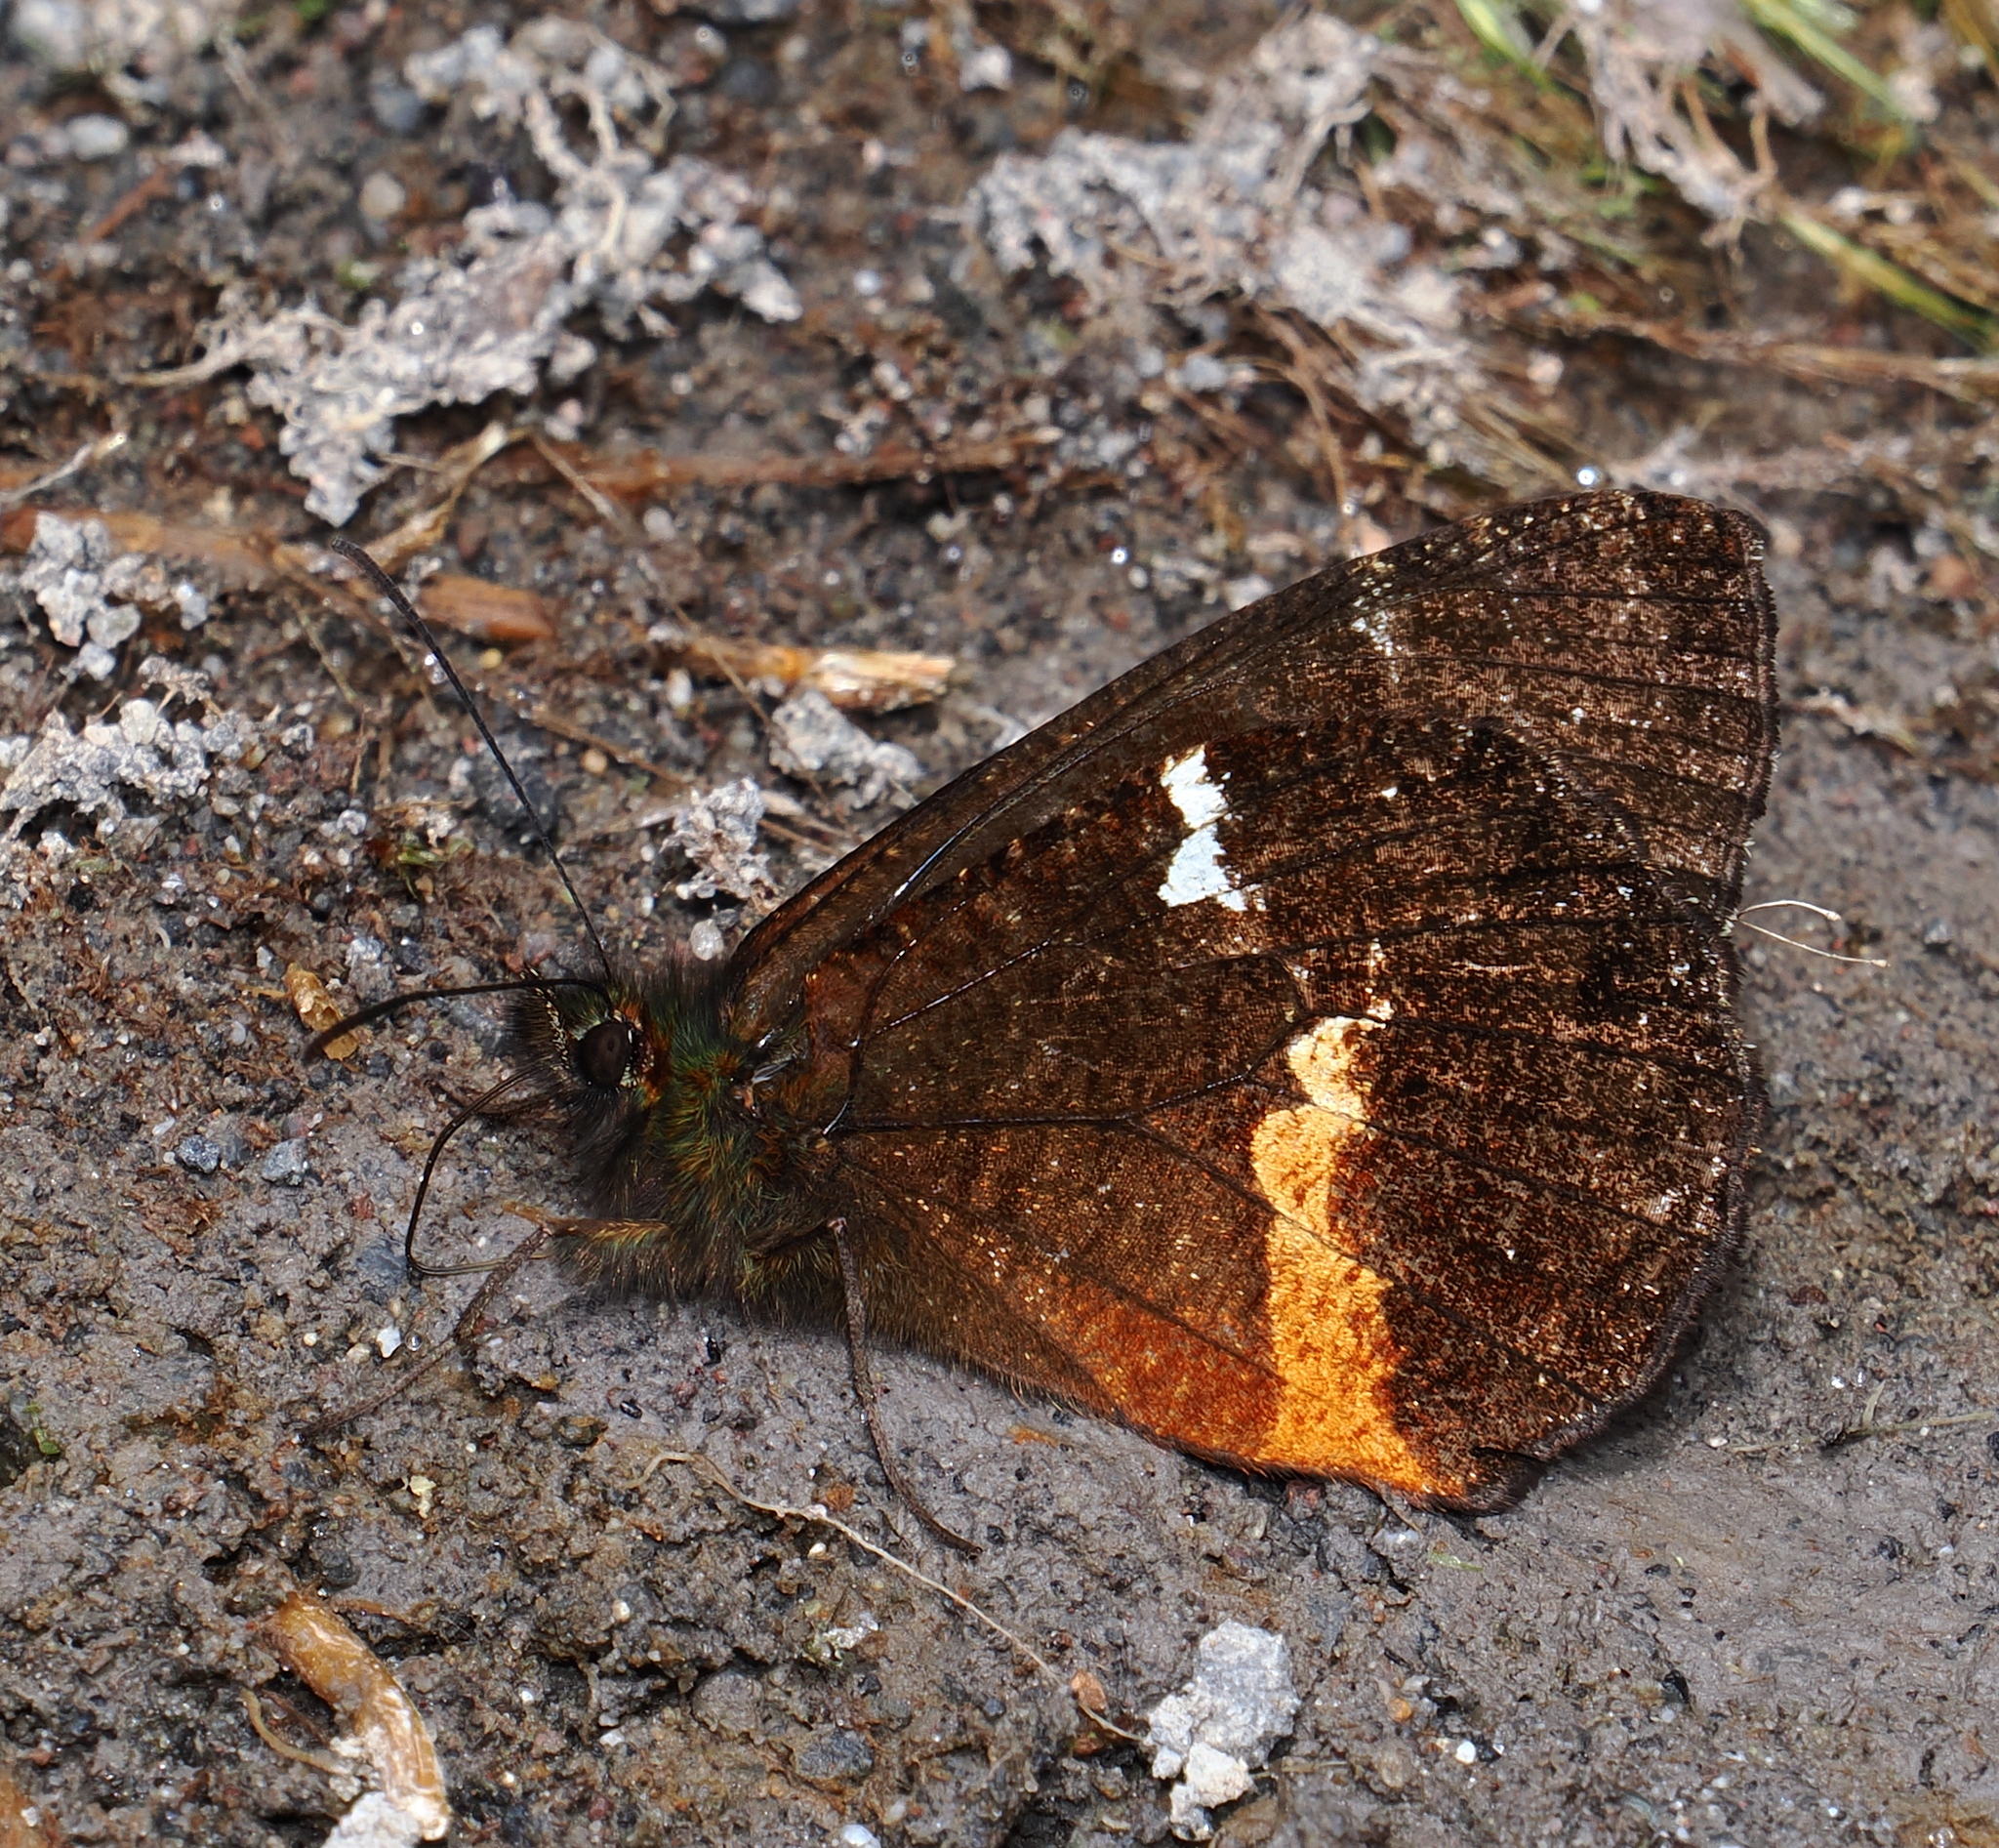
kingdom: Animalia
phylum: Arthropoda
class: Insecta
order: Lepidoptera
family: Nymphalidae
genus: Pedaliodes
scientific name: Pedaliodes
